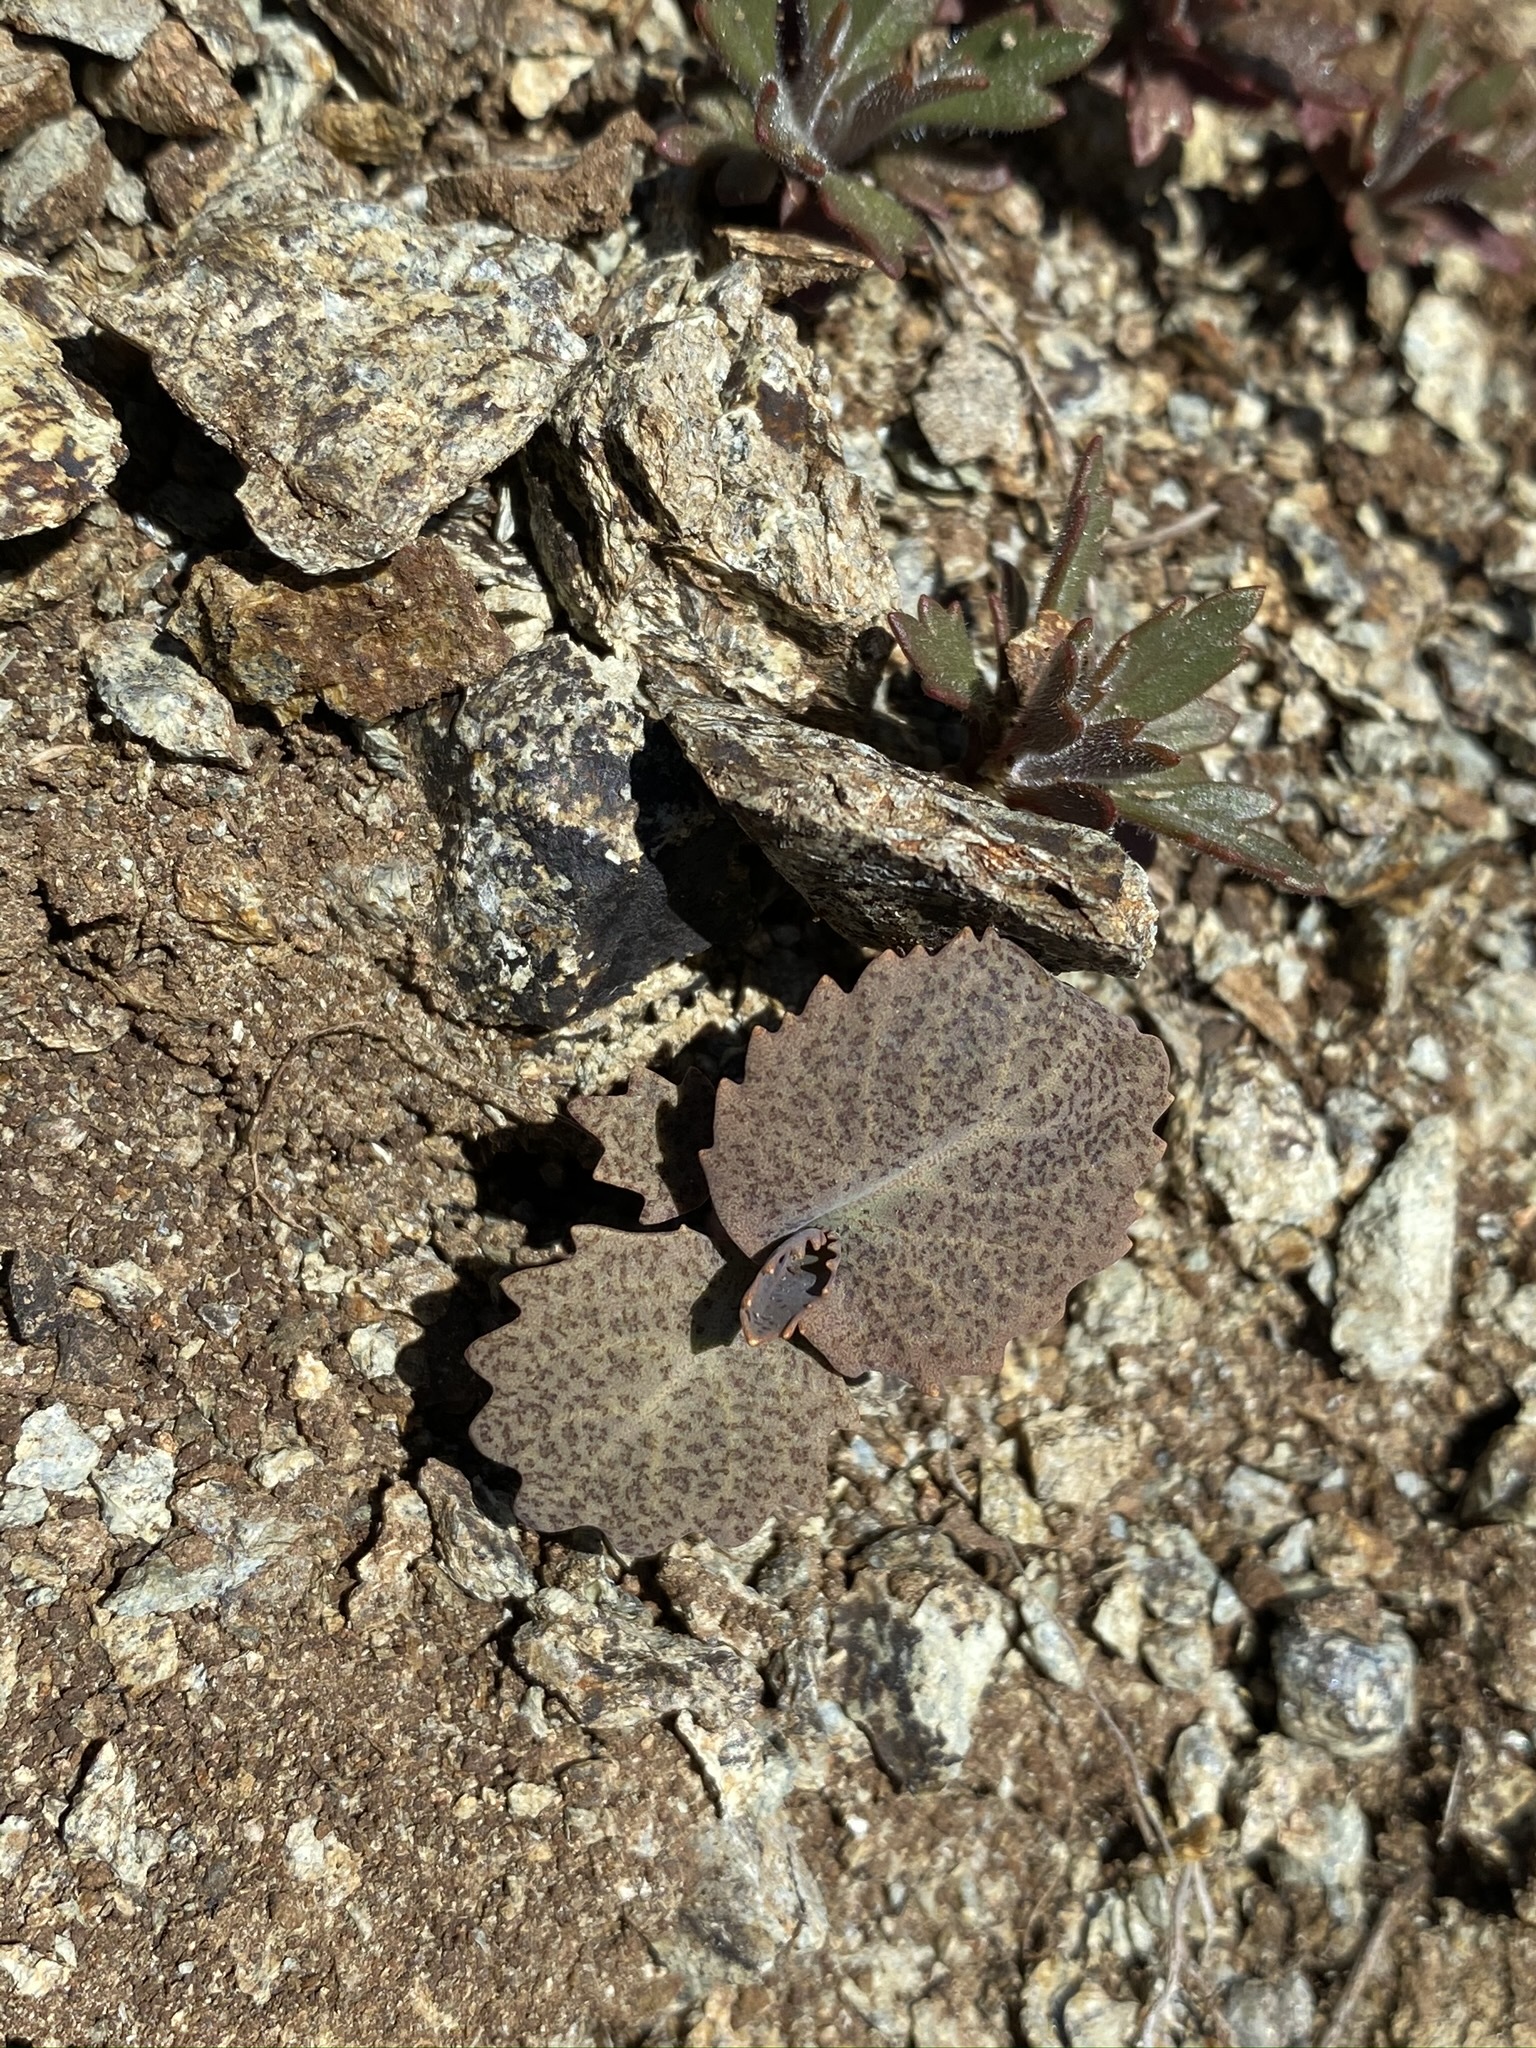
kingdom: Plantae
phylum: Tracheophyta
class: Magnoliopsida
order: Brassicales
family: Brassicaceae
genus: Streptanthus
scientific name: Streptanthus breweri
